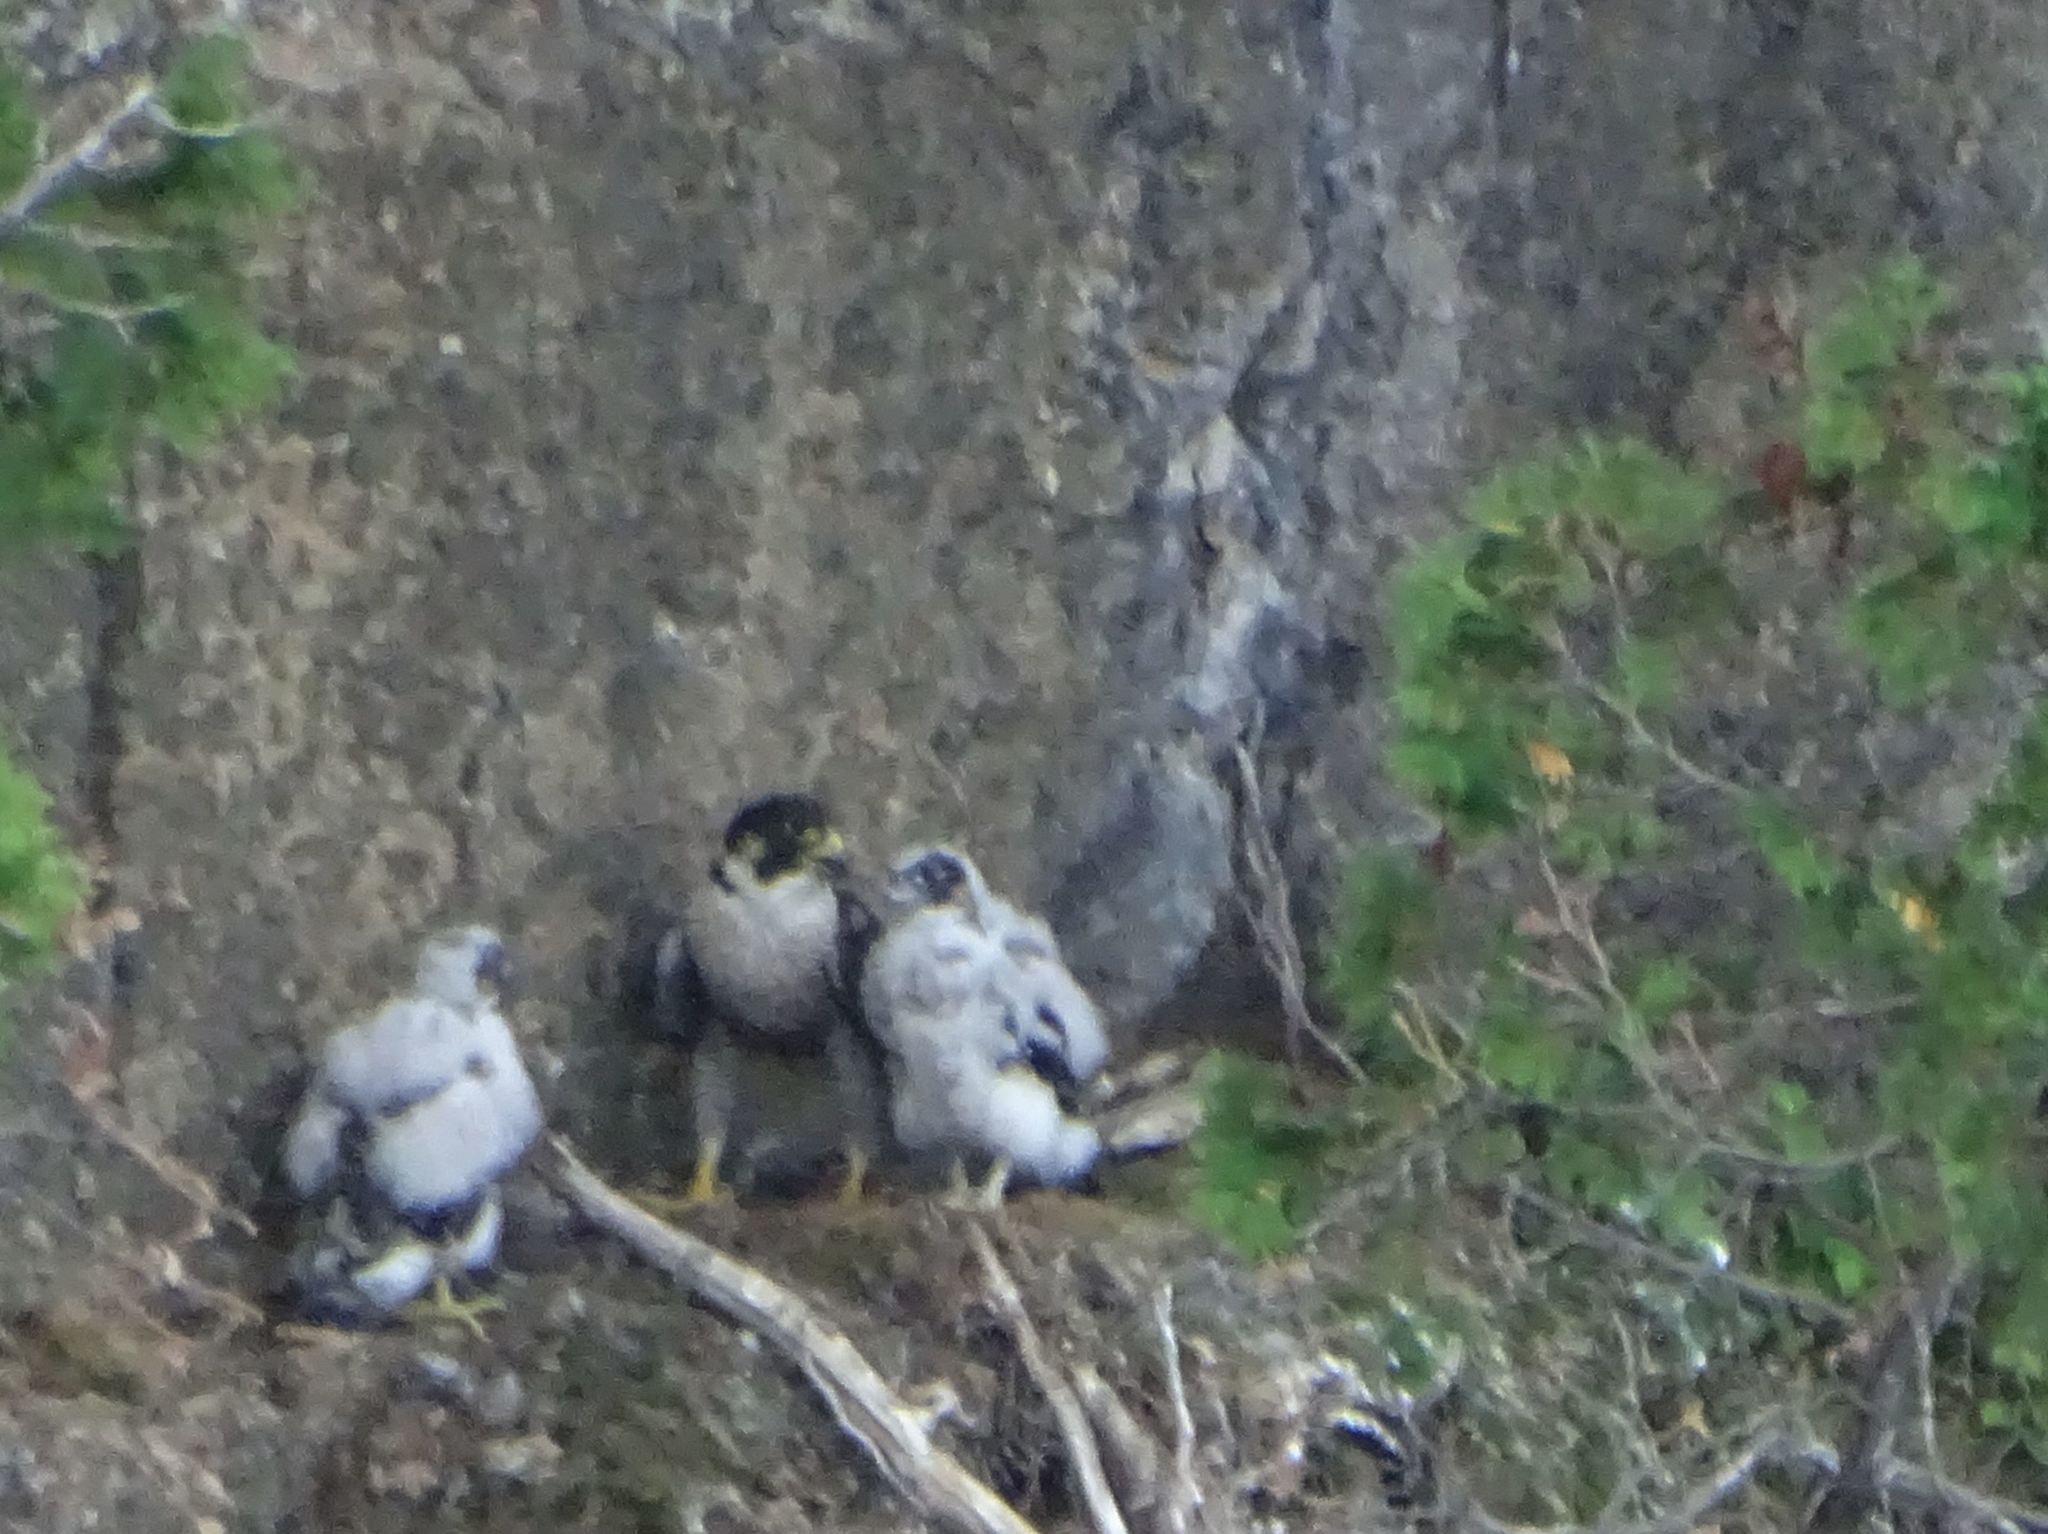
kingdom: Animalia
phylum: Chordata
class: Aves
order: Falconiformes
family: Falconidae
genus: Falco
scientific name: Falco peregrinus
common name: Peregrine falcon
